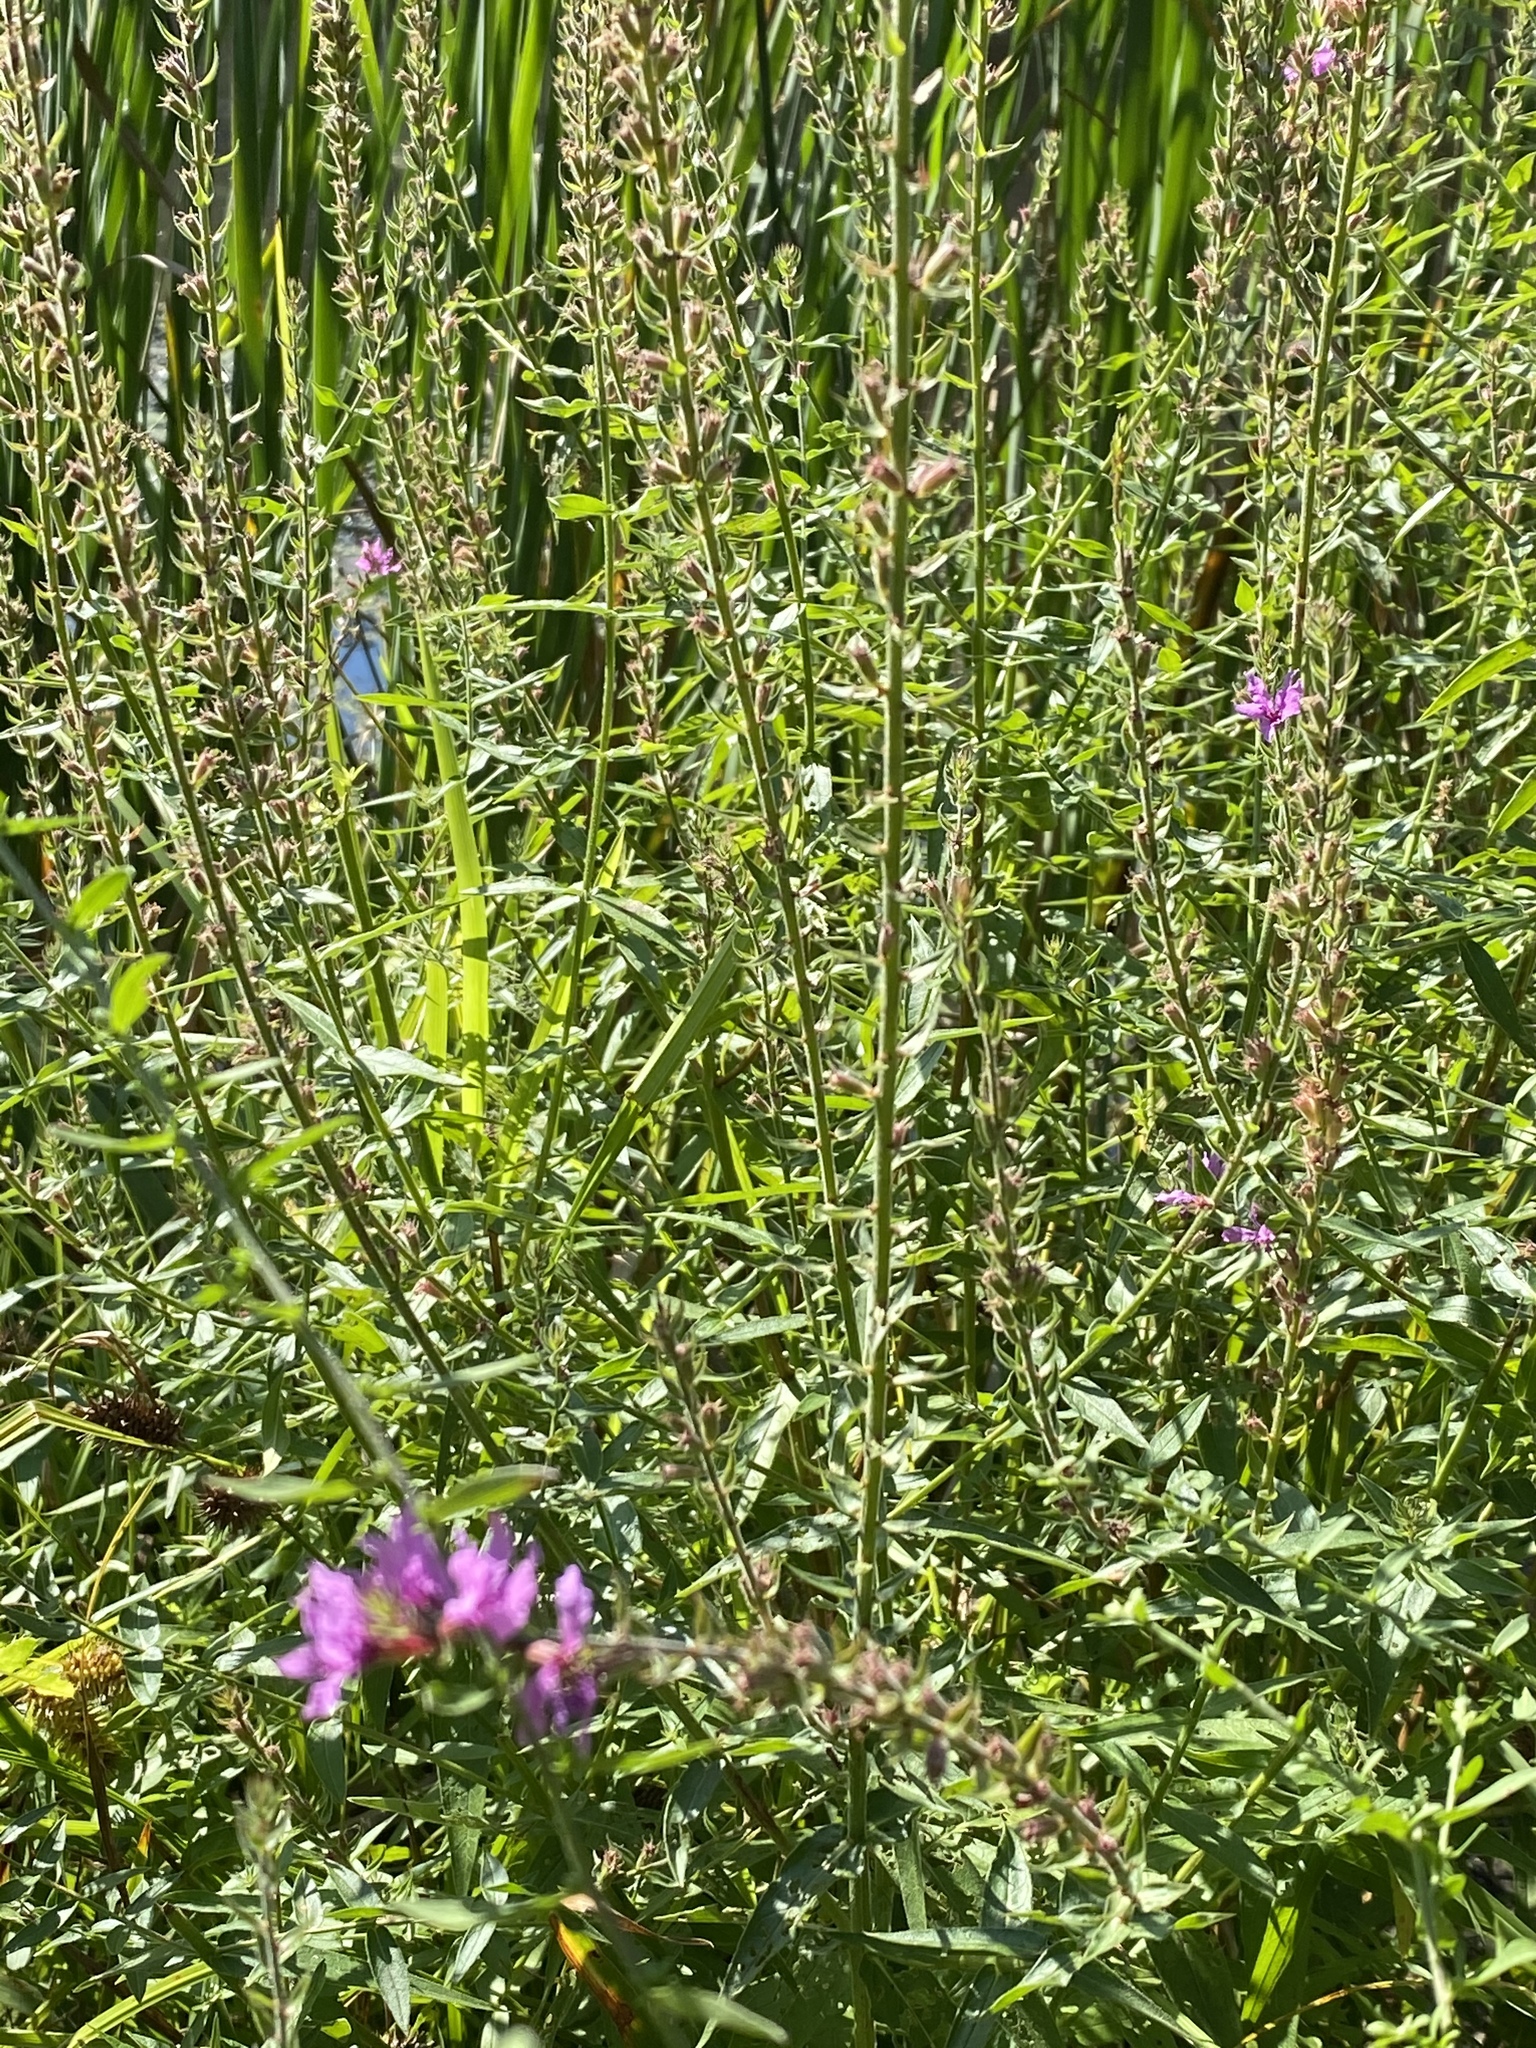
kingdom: Plantae
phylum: Tracheophyta
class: Magnoliopsida
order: Myrtales
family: Lythraceae
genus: Lythrum
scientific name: Lythrum salicaria
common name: Purple loosestrife
